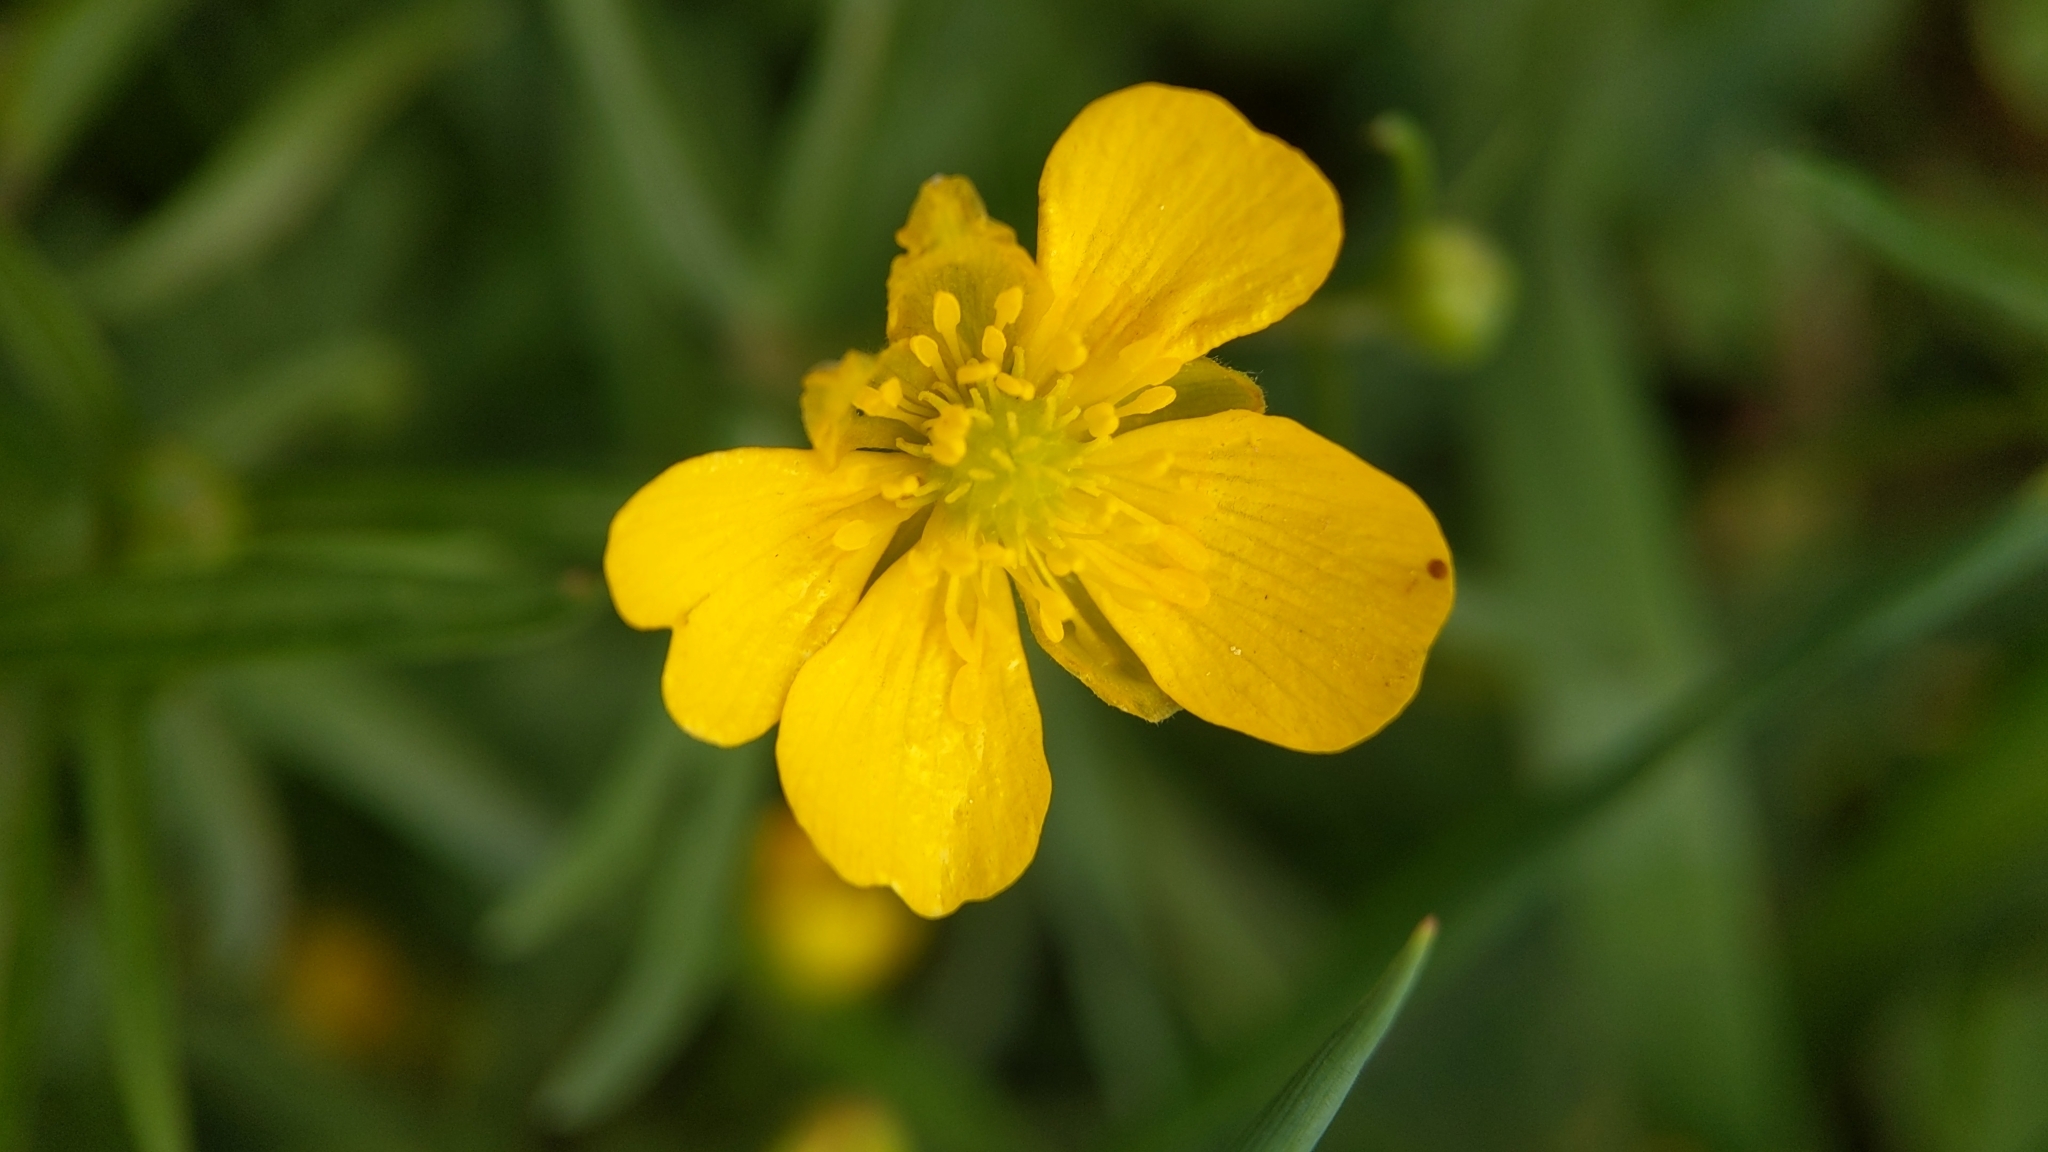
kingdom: Plantae
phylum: Tracheophyta
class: Magnoliopsida
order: Ranunculales
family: Ranunculaceae
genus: Ranunculus
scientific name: Ranunculus auricomus
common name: Goldilocks buttercup
